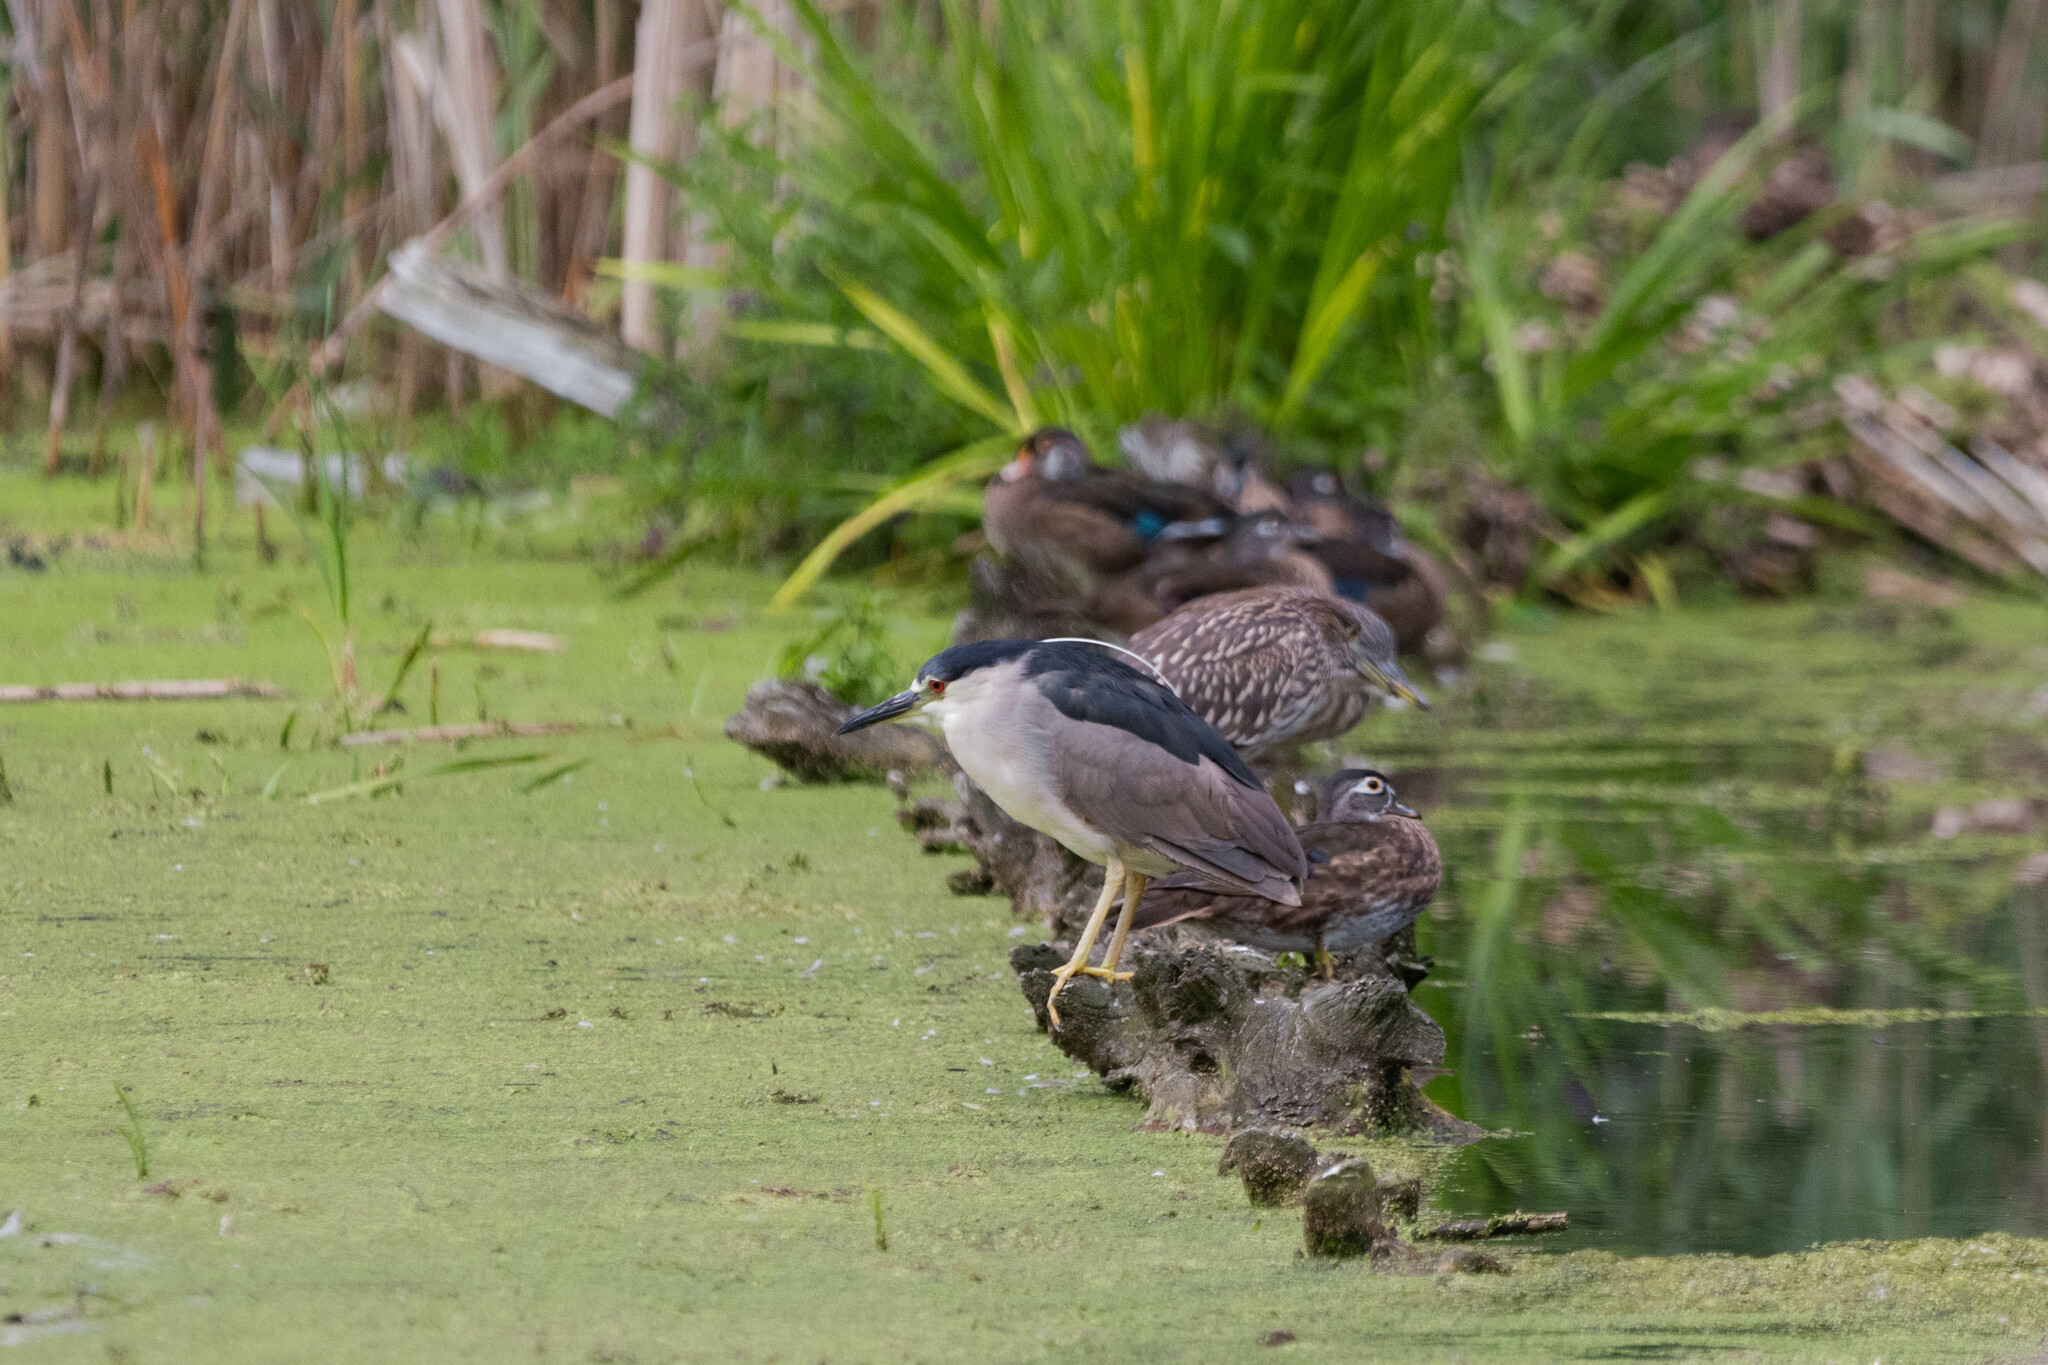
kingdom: Animalia
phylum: Chordata
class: Aves
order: Pelecaniformes
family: Ardeidae
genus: Nycticorax
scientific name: Nycticorax nycticorax
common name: Black-crowned night heron
